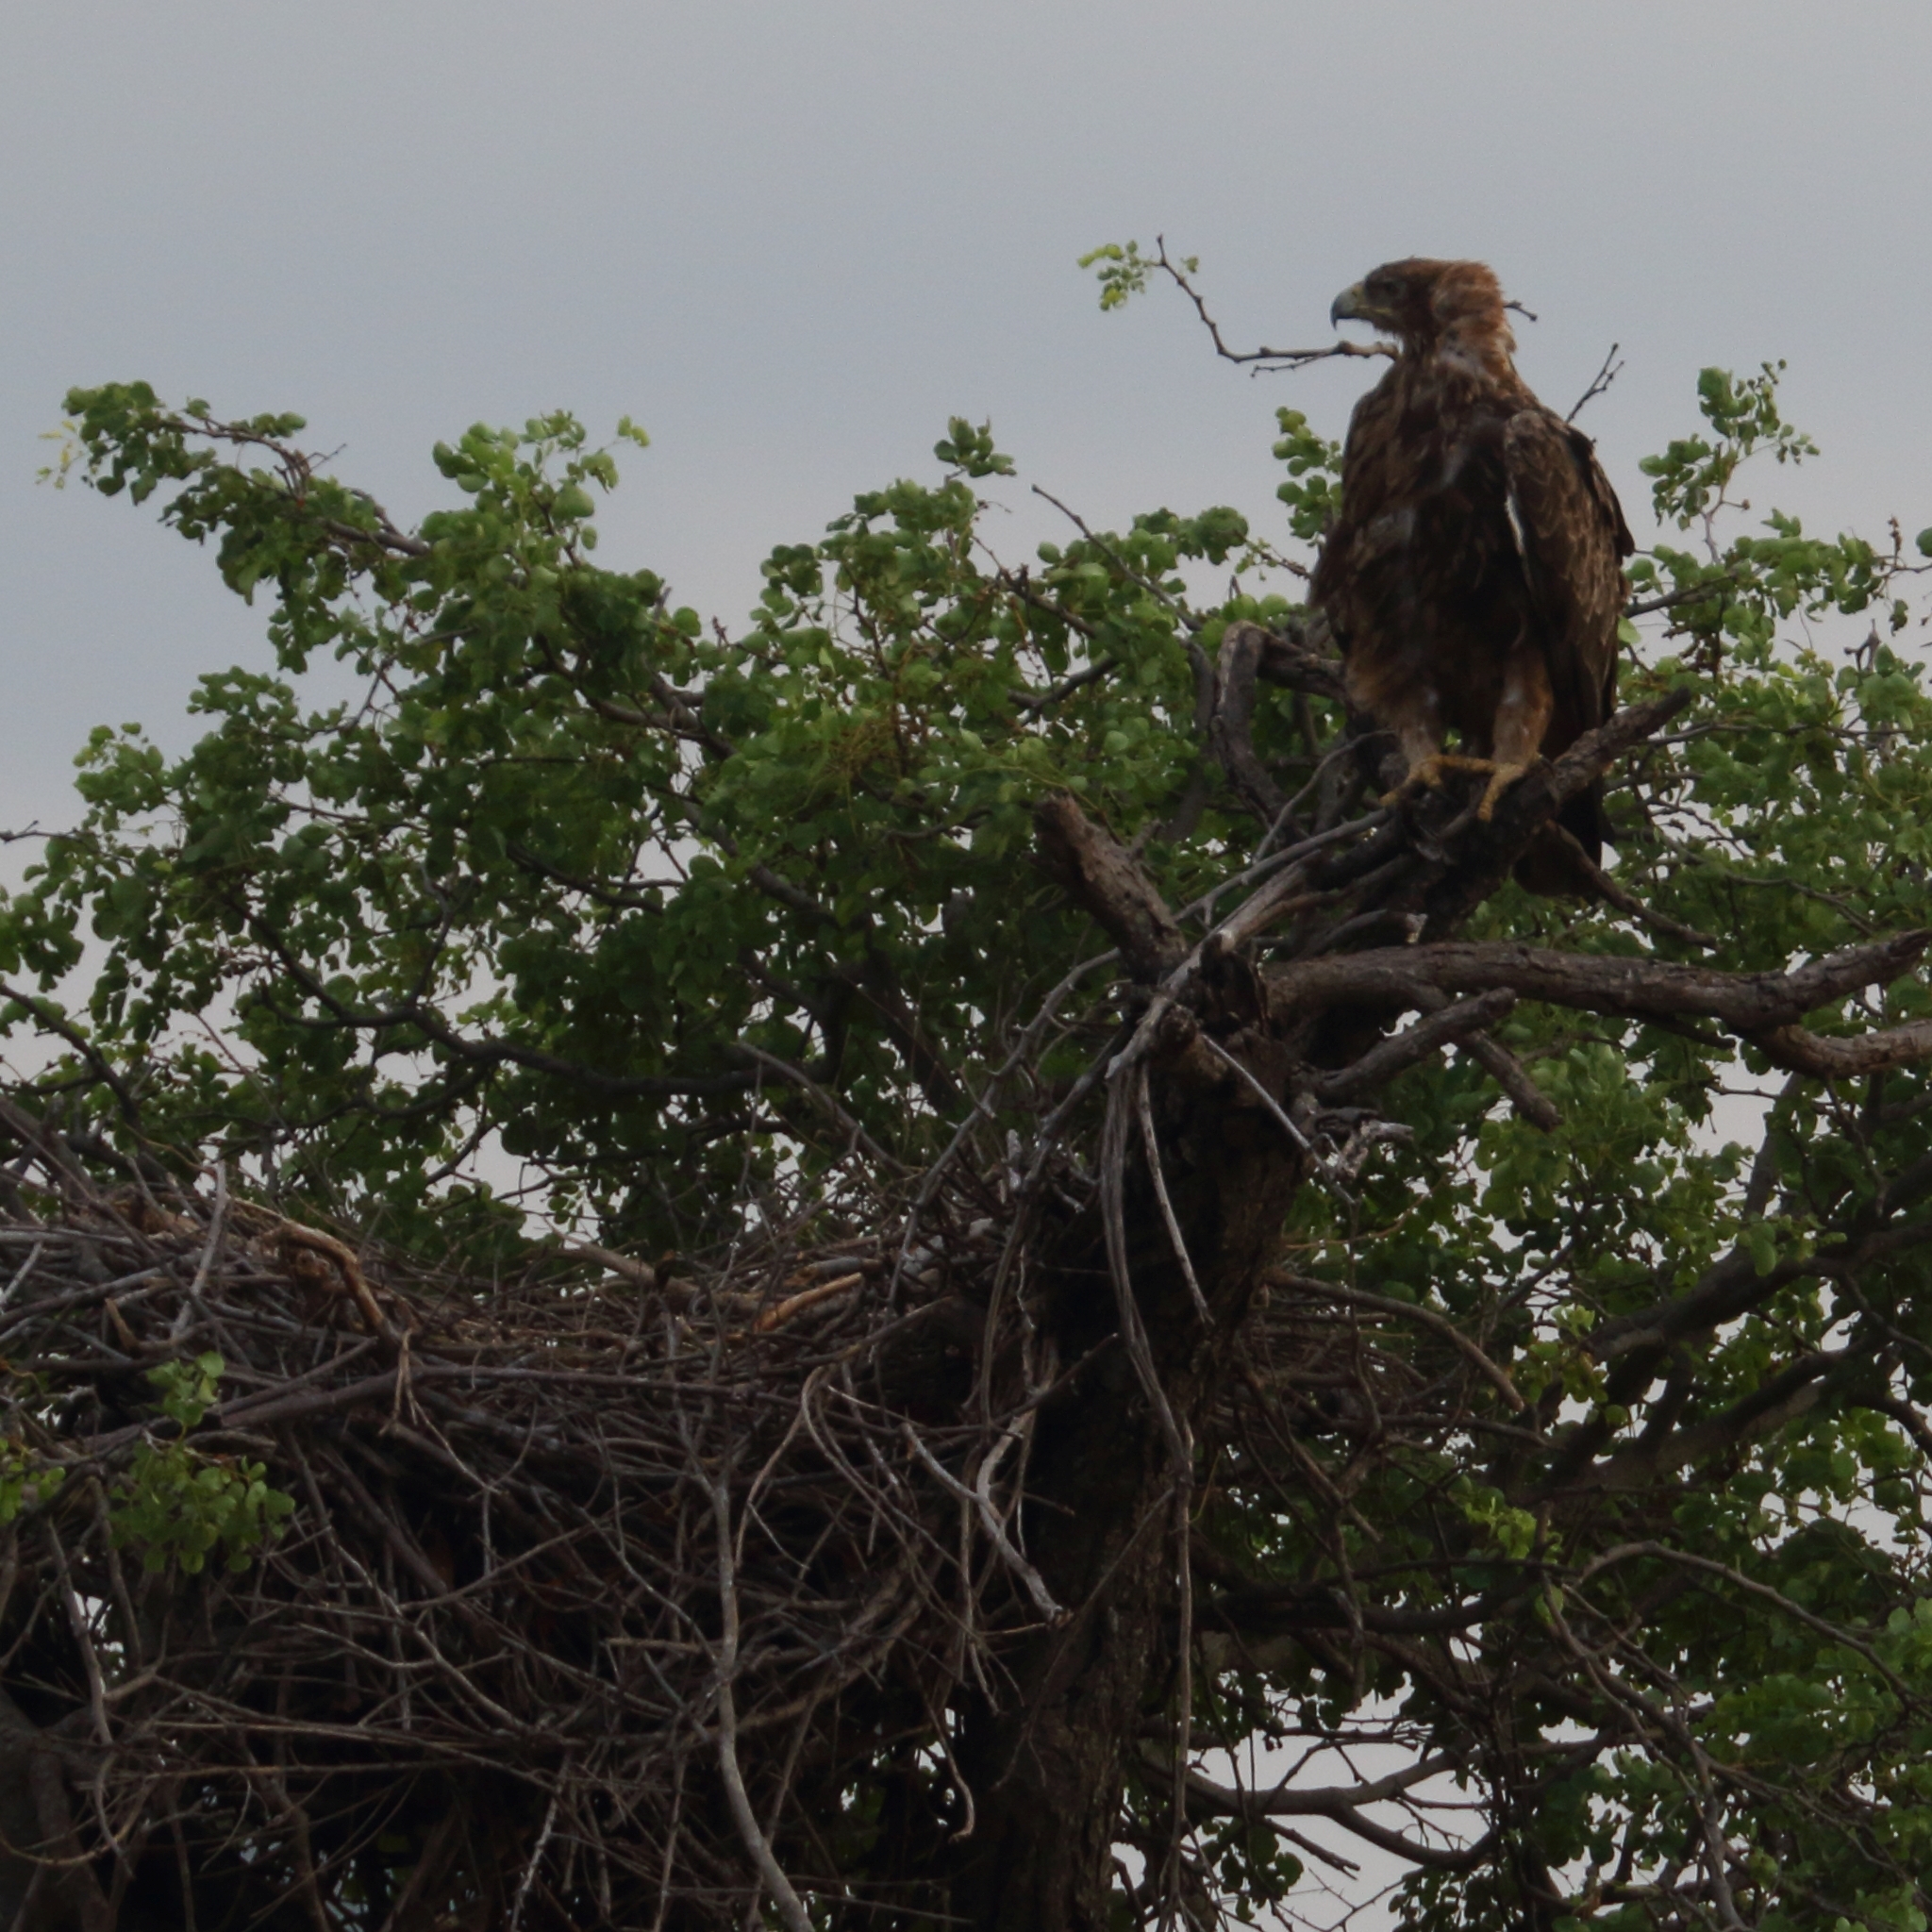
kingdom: Animalia
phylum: Chordata
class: Aves
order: Accipitriformes
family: Accipitridae
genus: Aquila
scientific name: Aquila rapax
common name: Tawny eagle
